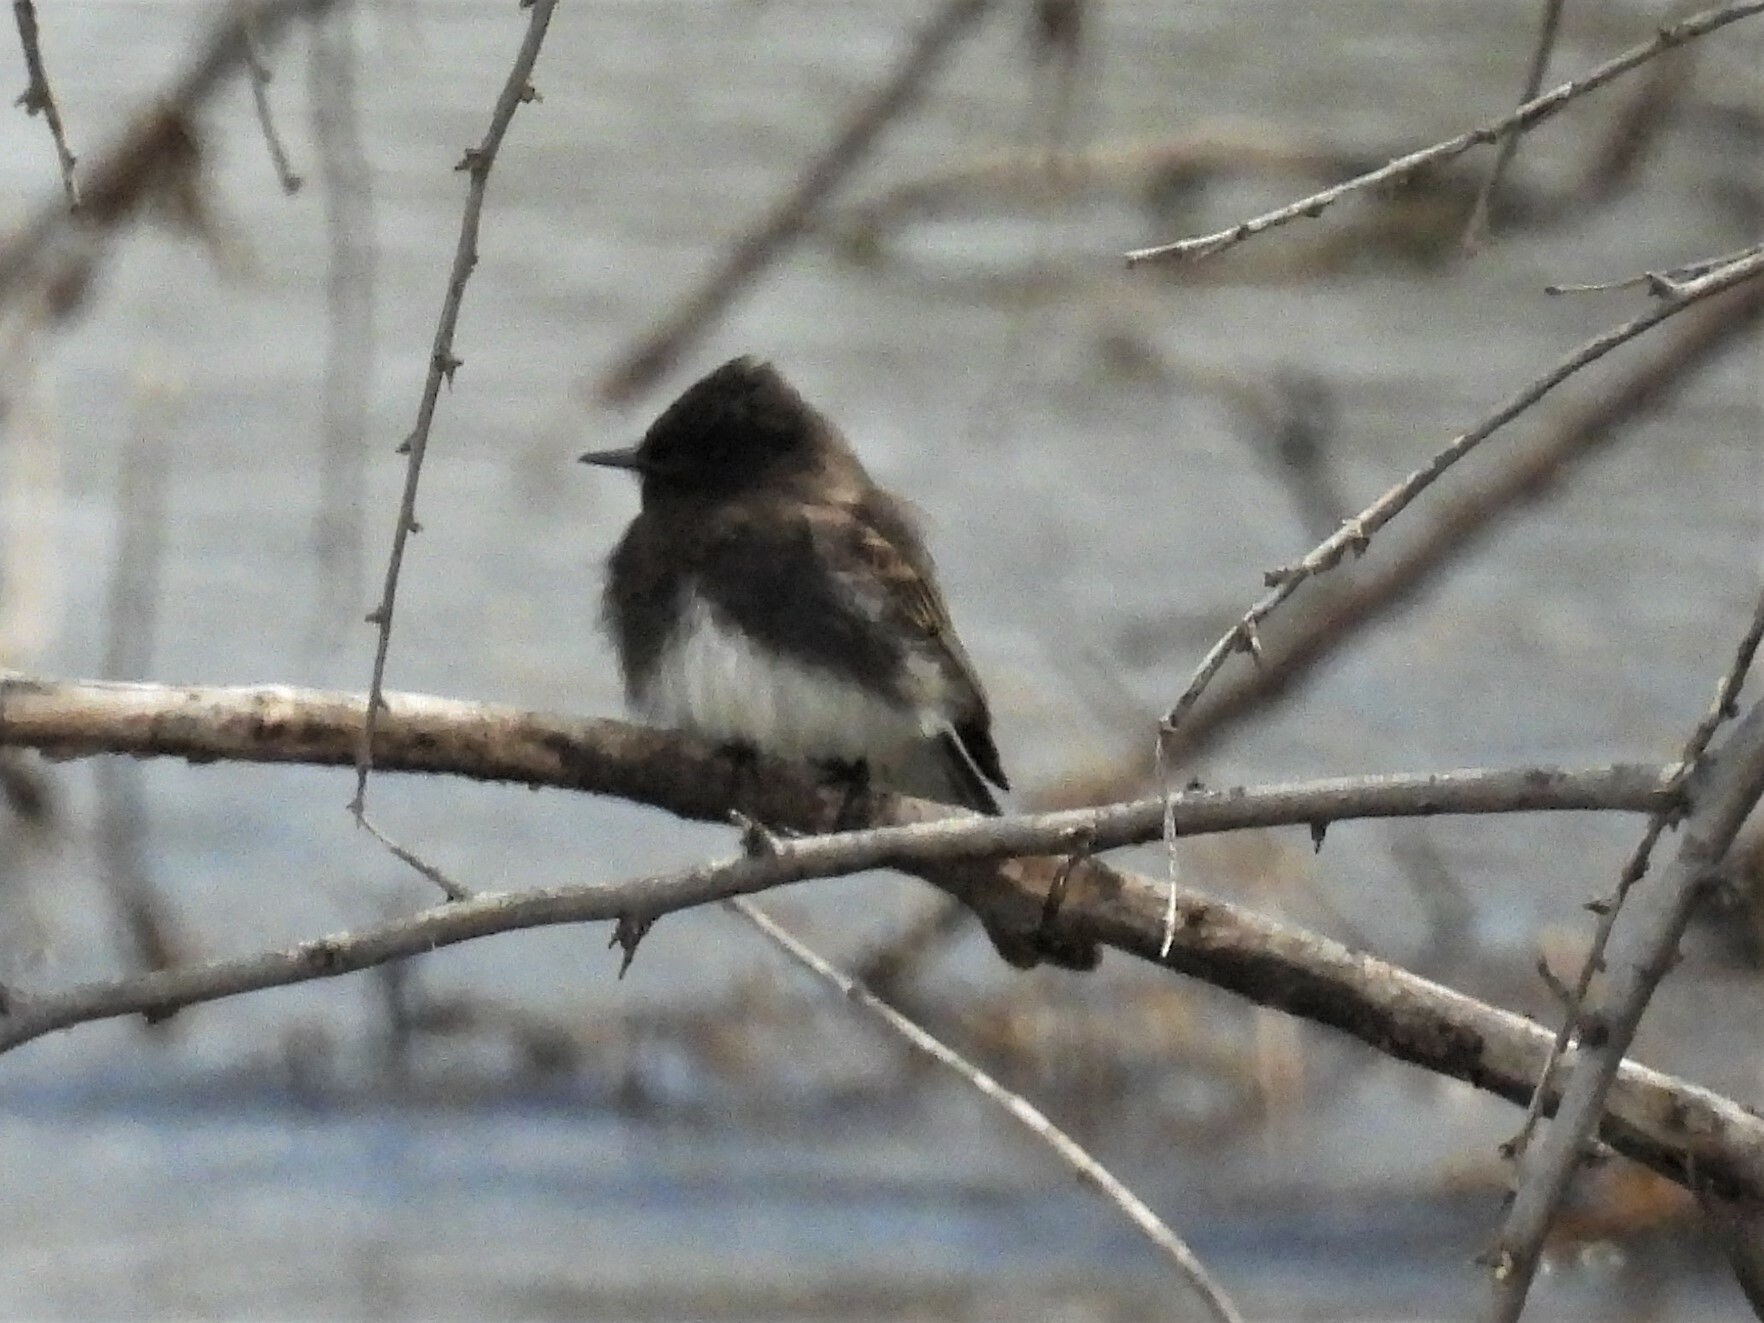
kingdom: Animalia
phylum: Chordata
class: Aves
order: Passeriformes
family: Tyrannidae
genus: Sayornis
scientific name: Sayornis nigricans
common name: Black phoebe
